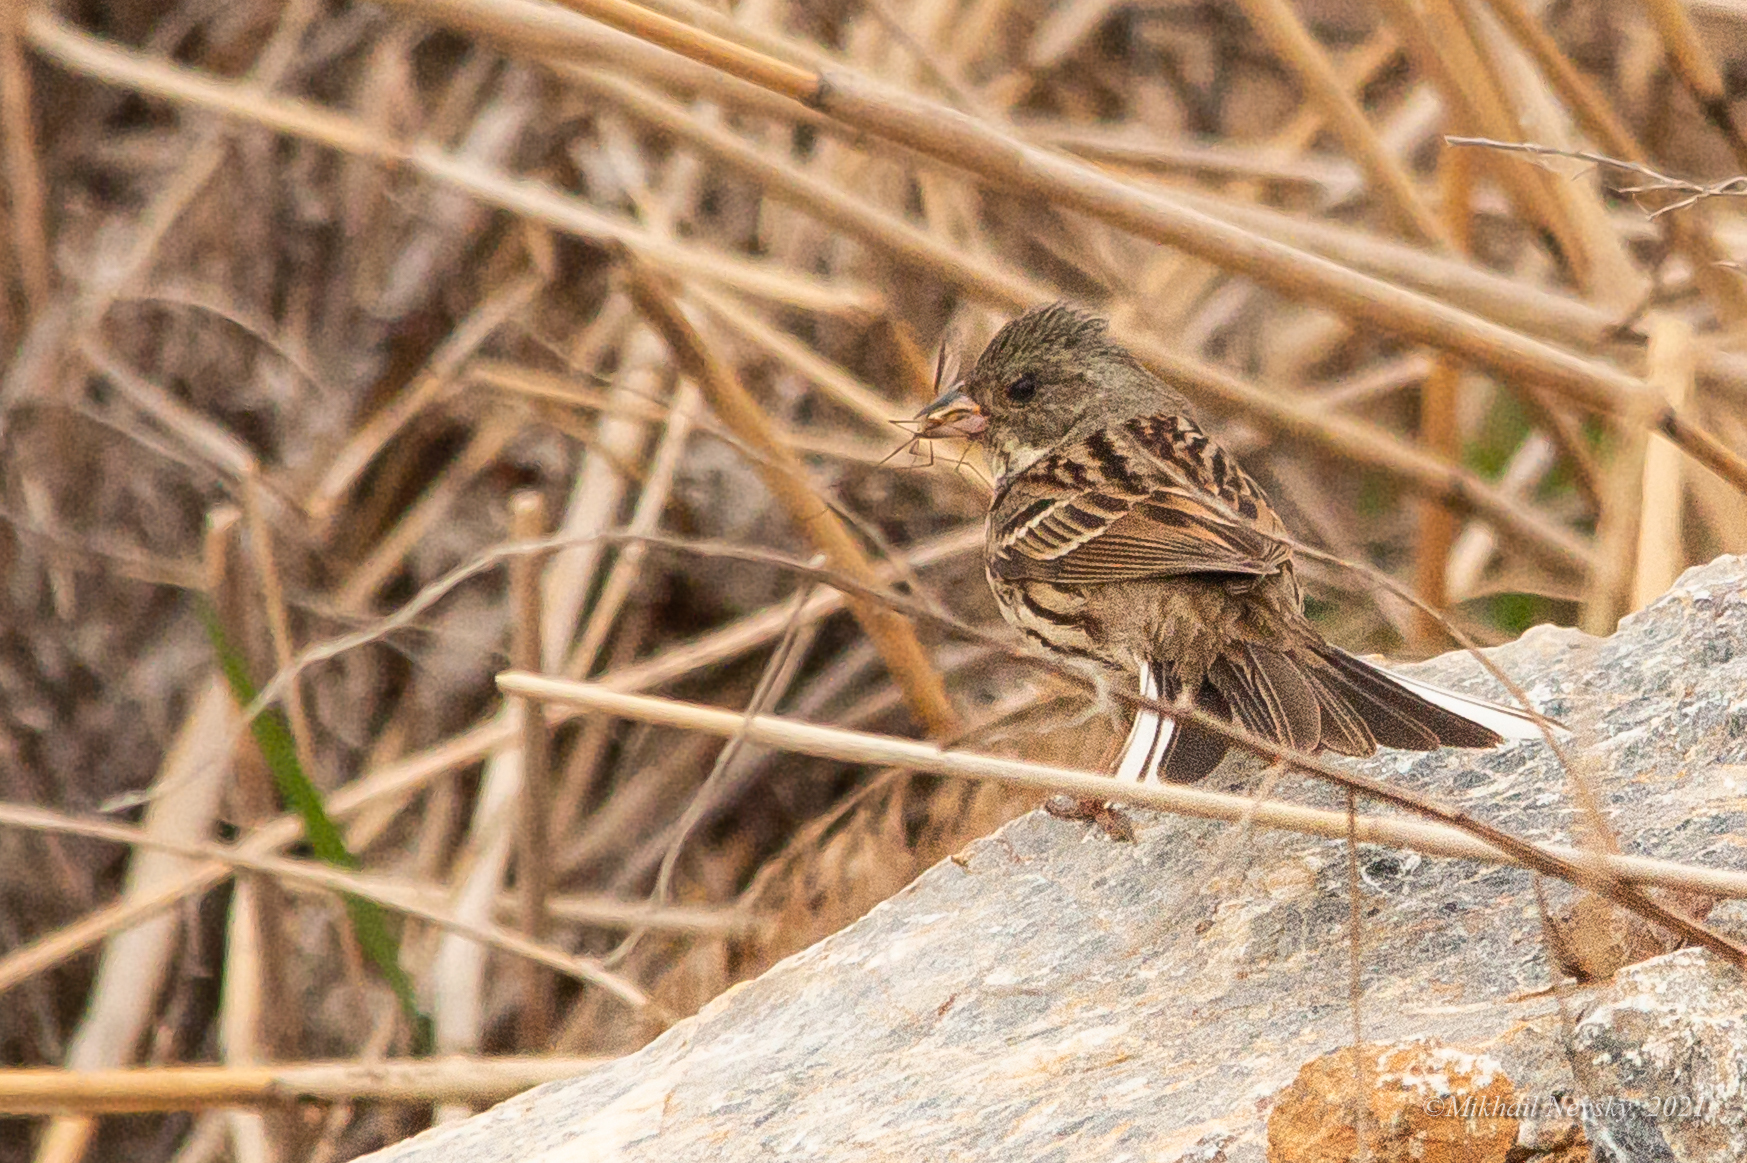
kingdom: Animalia
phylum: Chordata
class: Aves
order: Passeriformes
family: Emberizidae
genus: Emberiza
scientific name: Emberiza spodocephala
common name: Black-faced bunting
